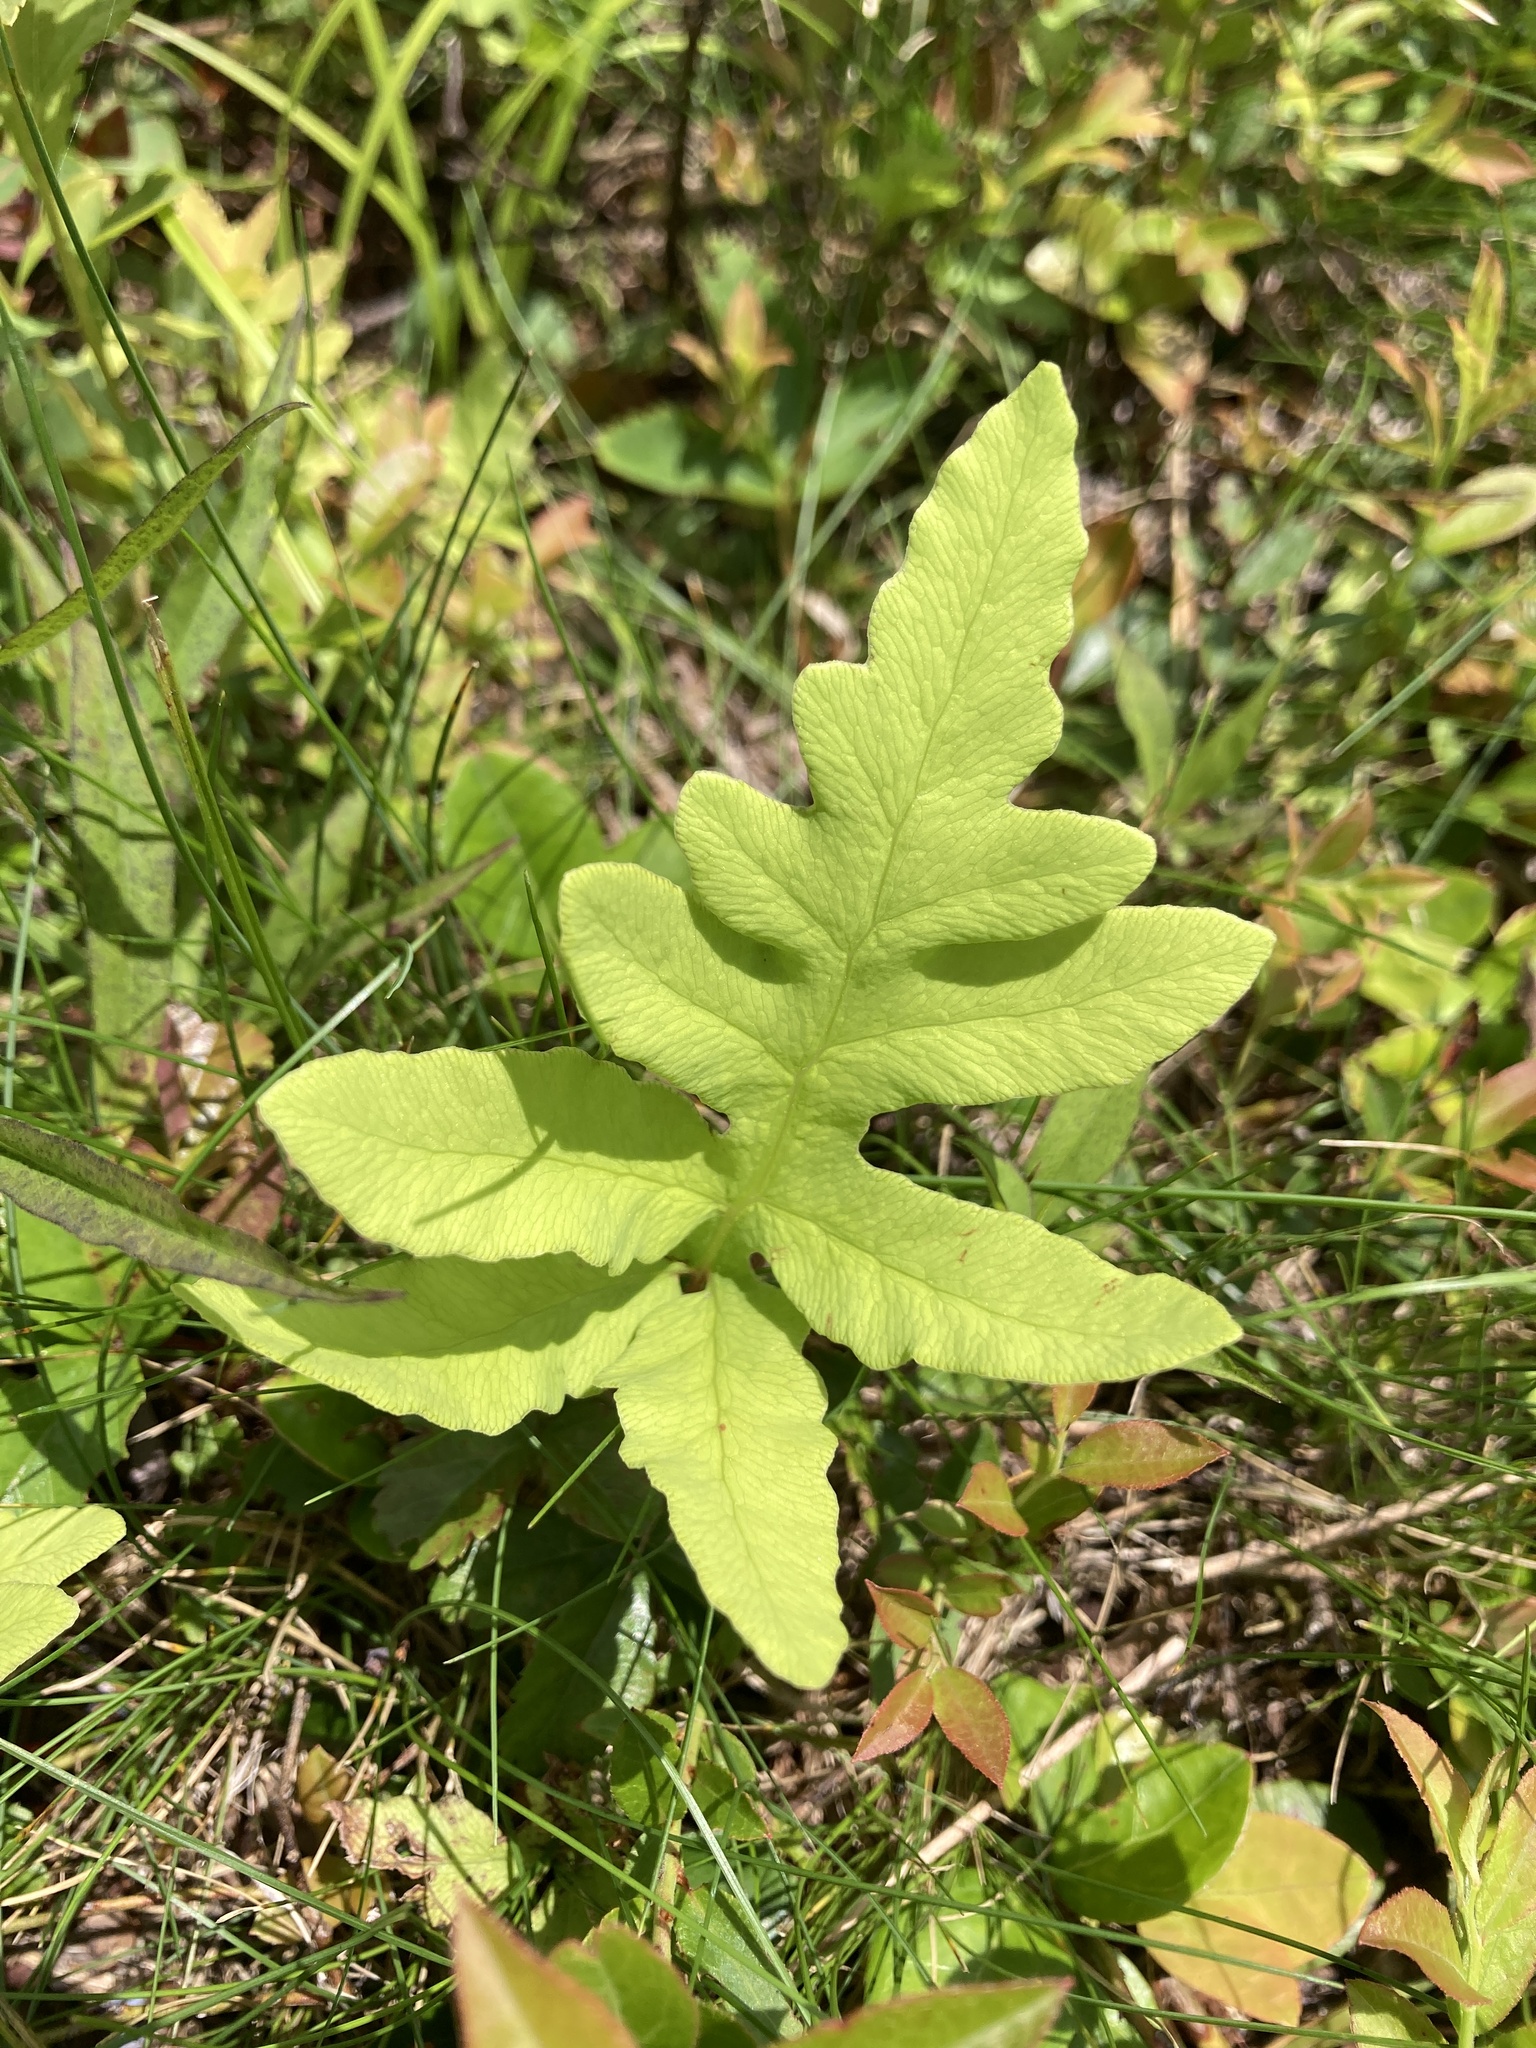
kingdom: Plantae
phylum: Tracheophyta
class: Polypodiopsida
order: Polypodiales
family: Onocleaceae
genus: Onoclea
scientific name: Onoclea sensibilis
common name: Sensitive fern
